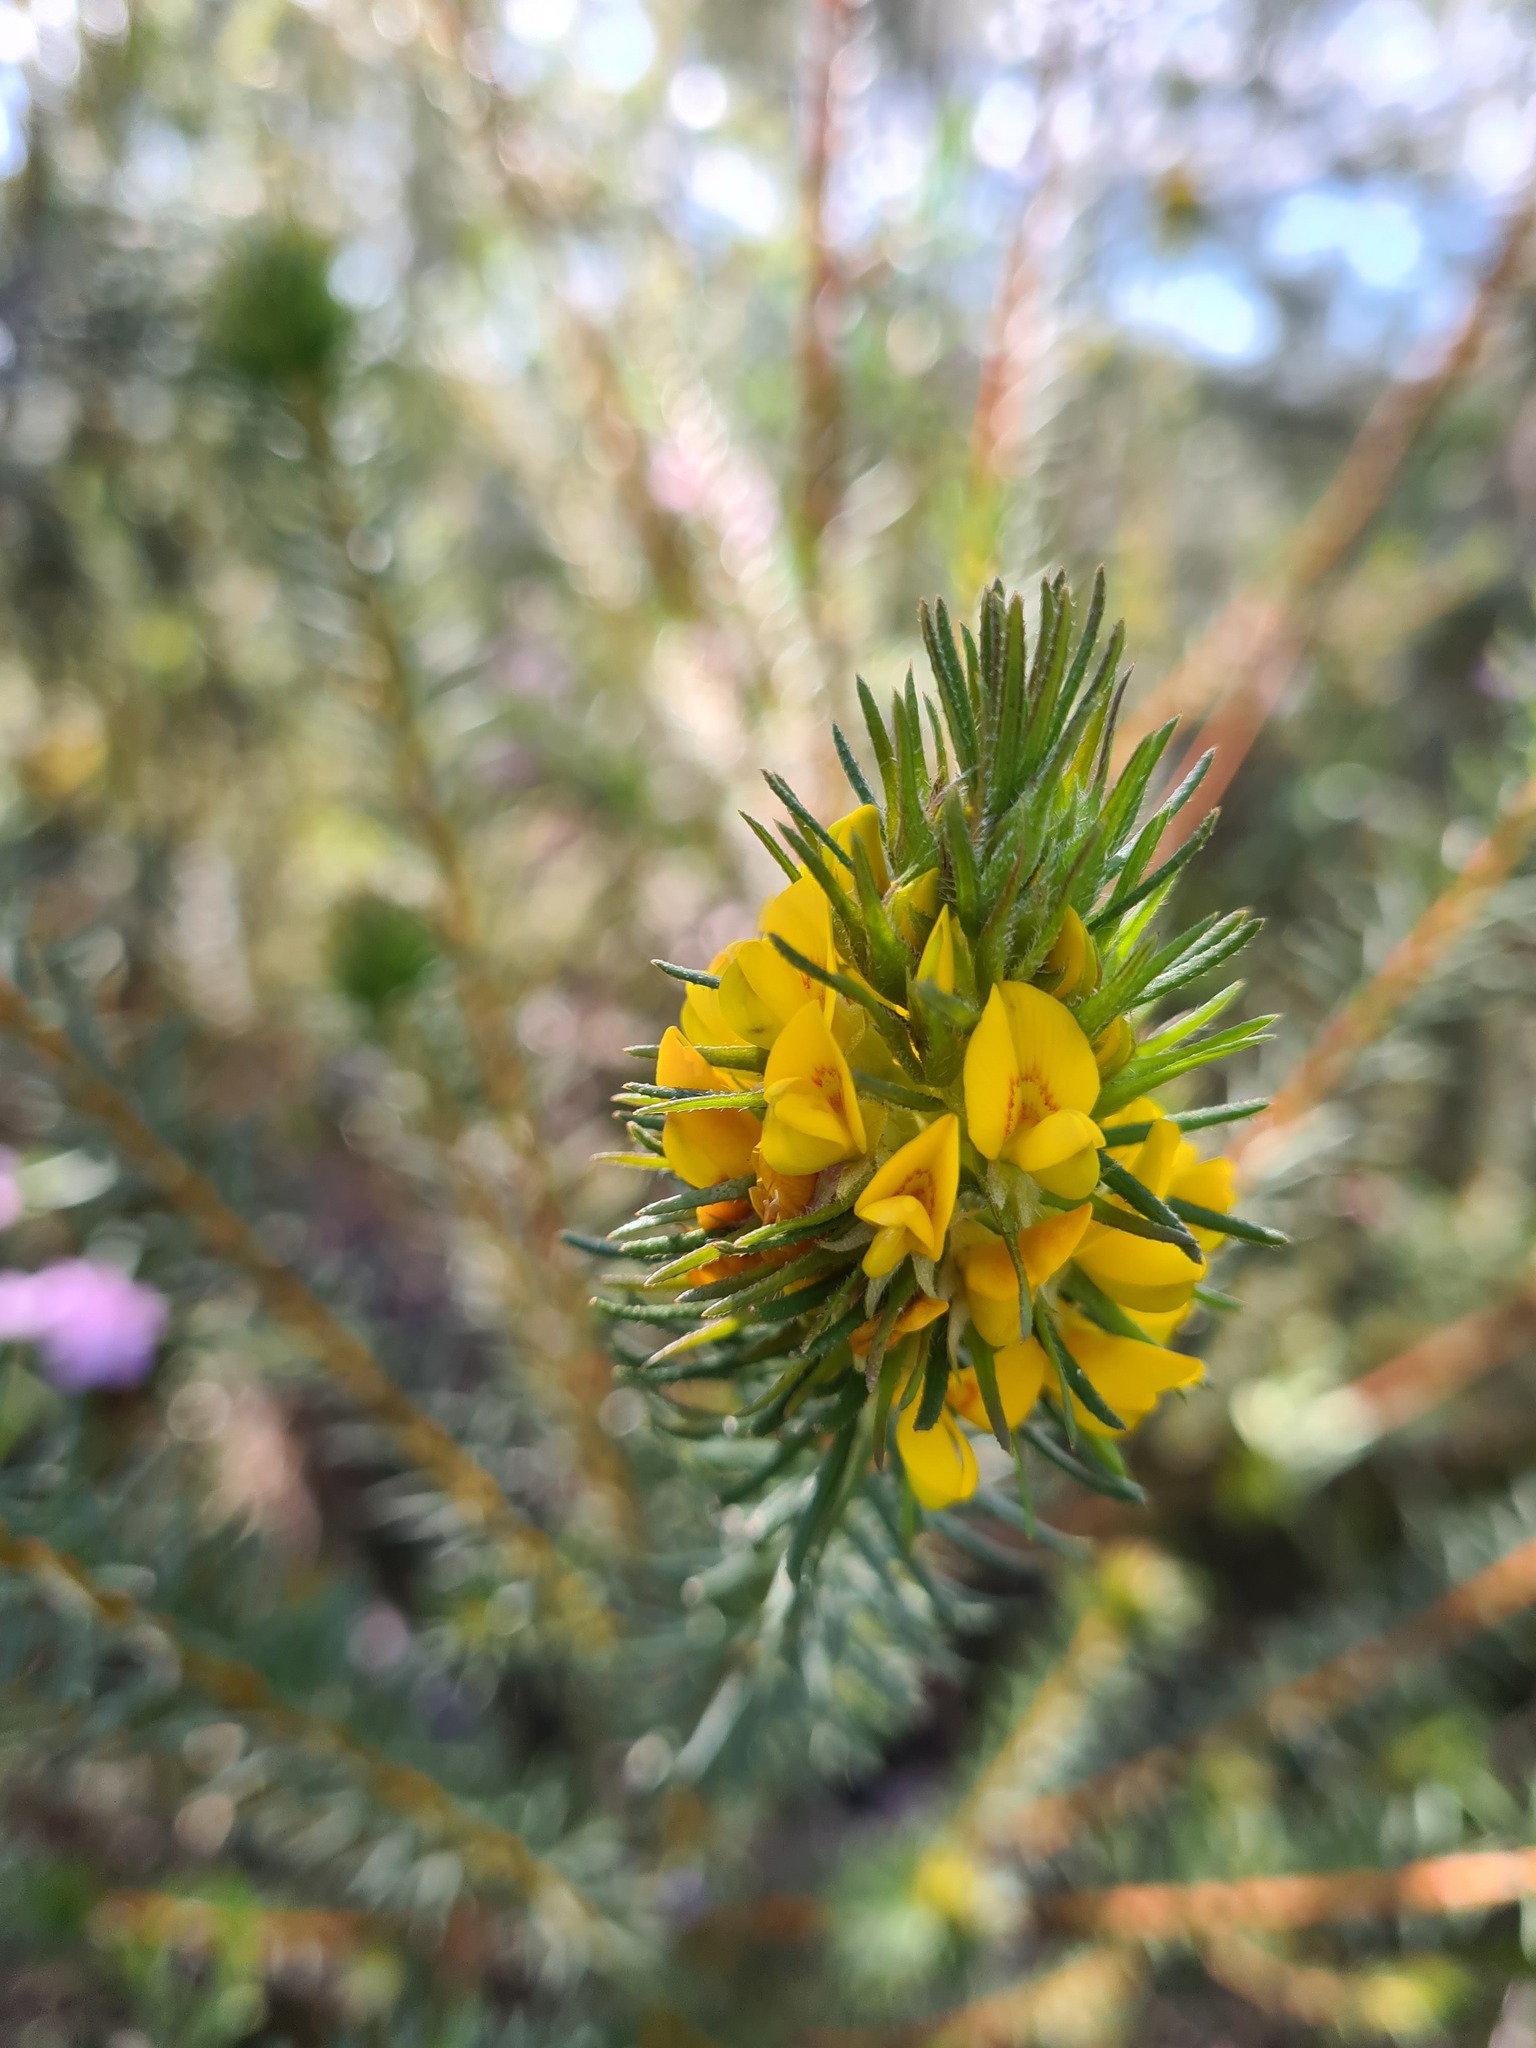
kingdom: Plantae
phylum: Tracheophyta
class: Magnoliopsida
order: Fabales
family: Fabaceae
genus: Phyllota
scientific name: Phyllota grandiflora
